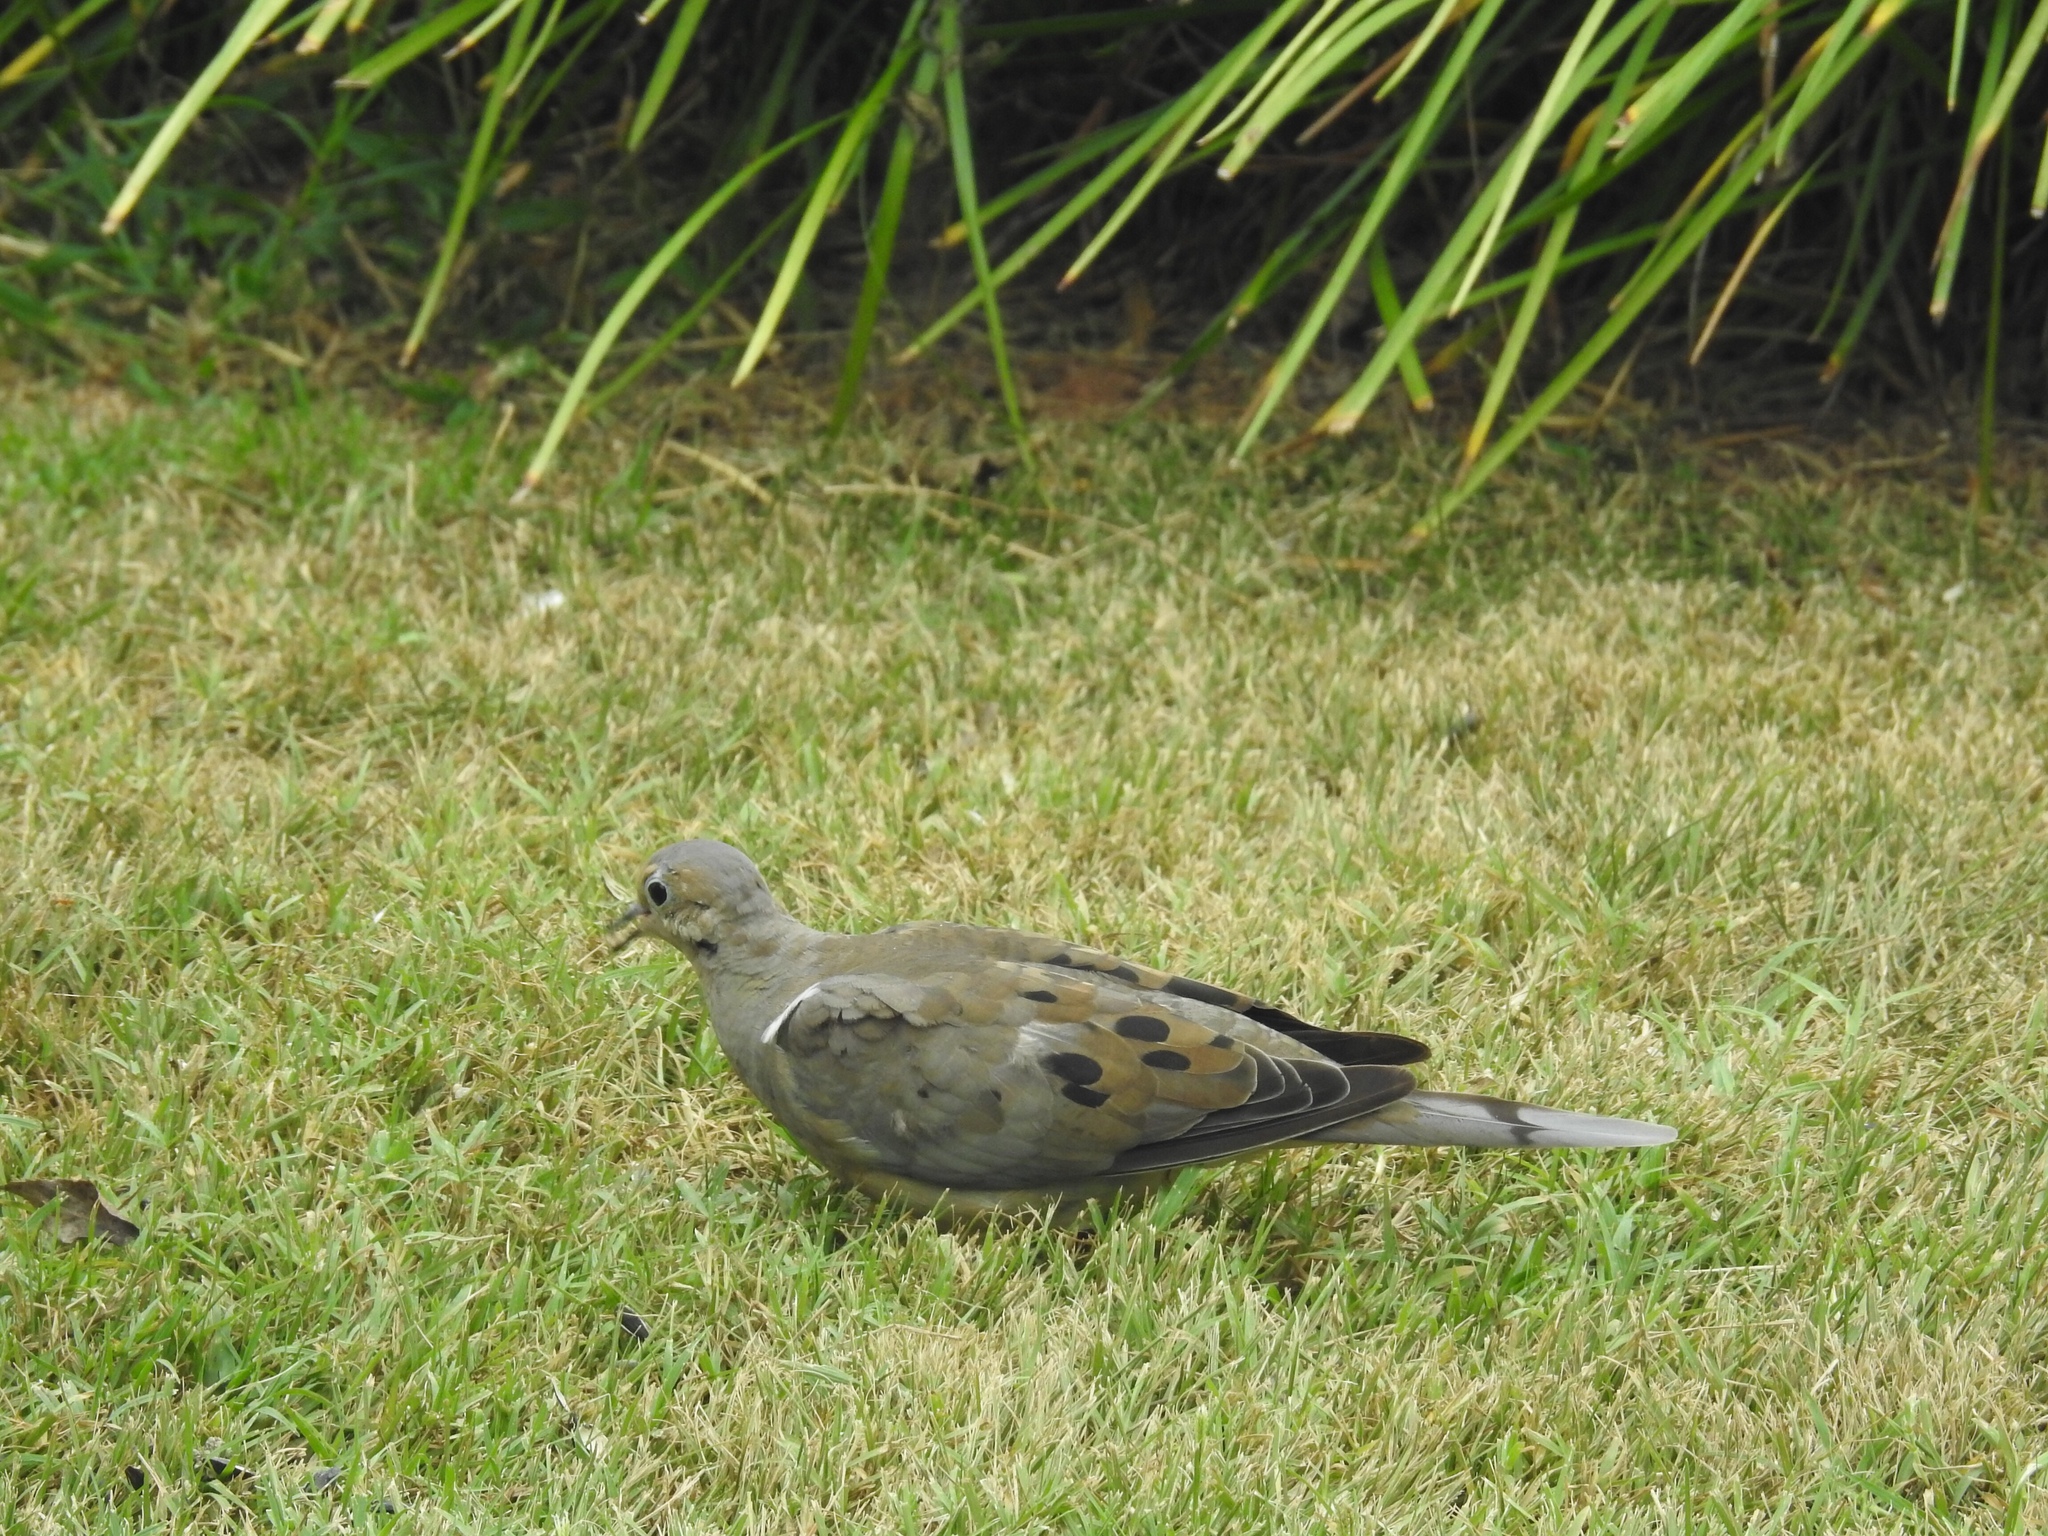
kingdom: Animalia
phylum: Chordata
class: Aves
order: Columbiformes
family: Columbidae
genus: Zenaida
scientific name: Zenaida macroura
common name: Mourning dove
